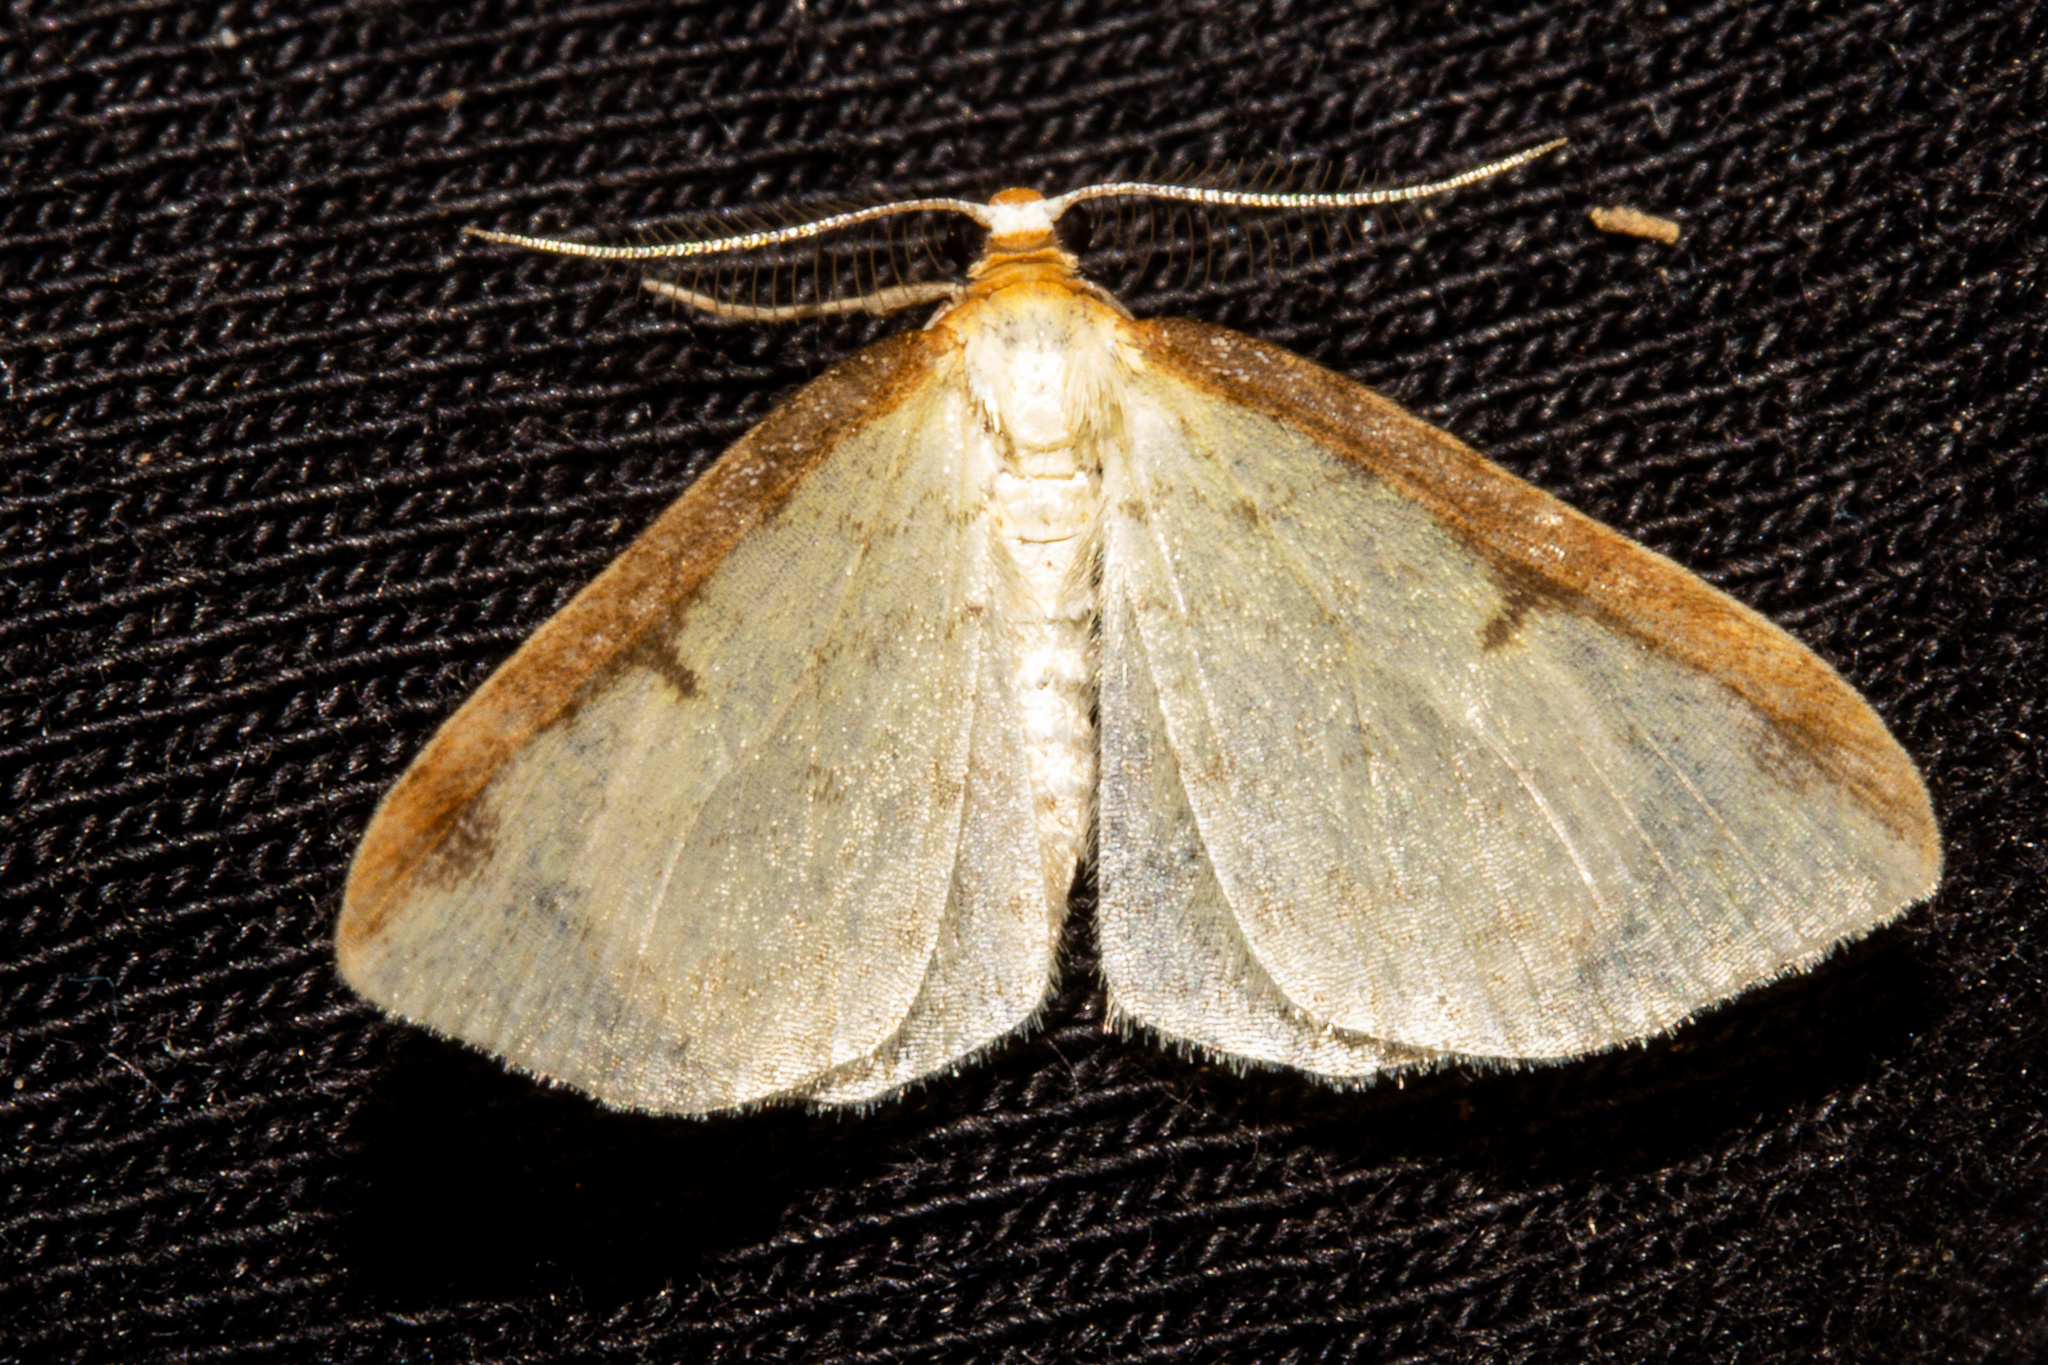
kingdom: Animalia
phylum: Arthropoda
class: Insecta
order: Lepidoptera
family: Geometridae
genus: Epiphryne
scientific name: Epiphryne undosata
